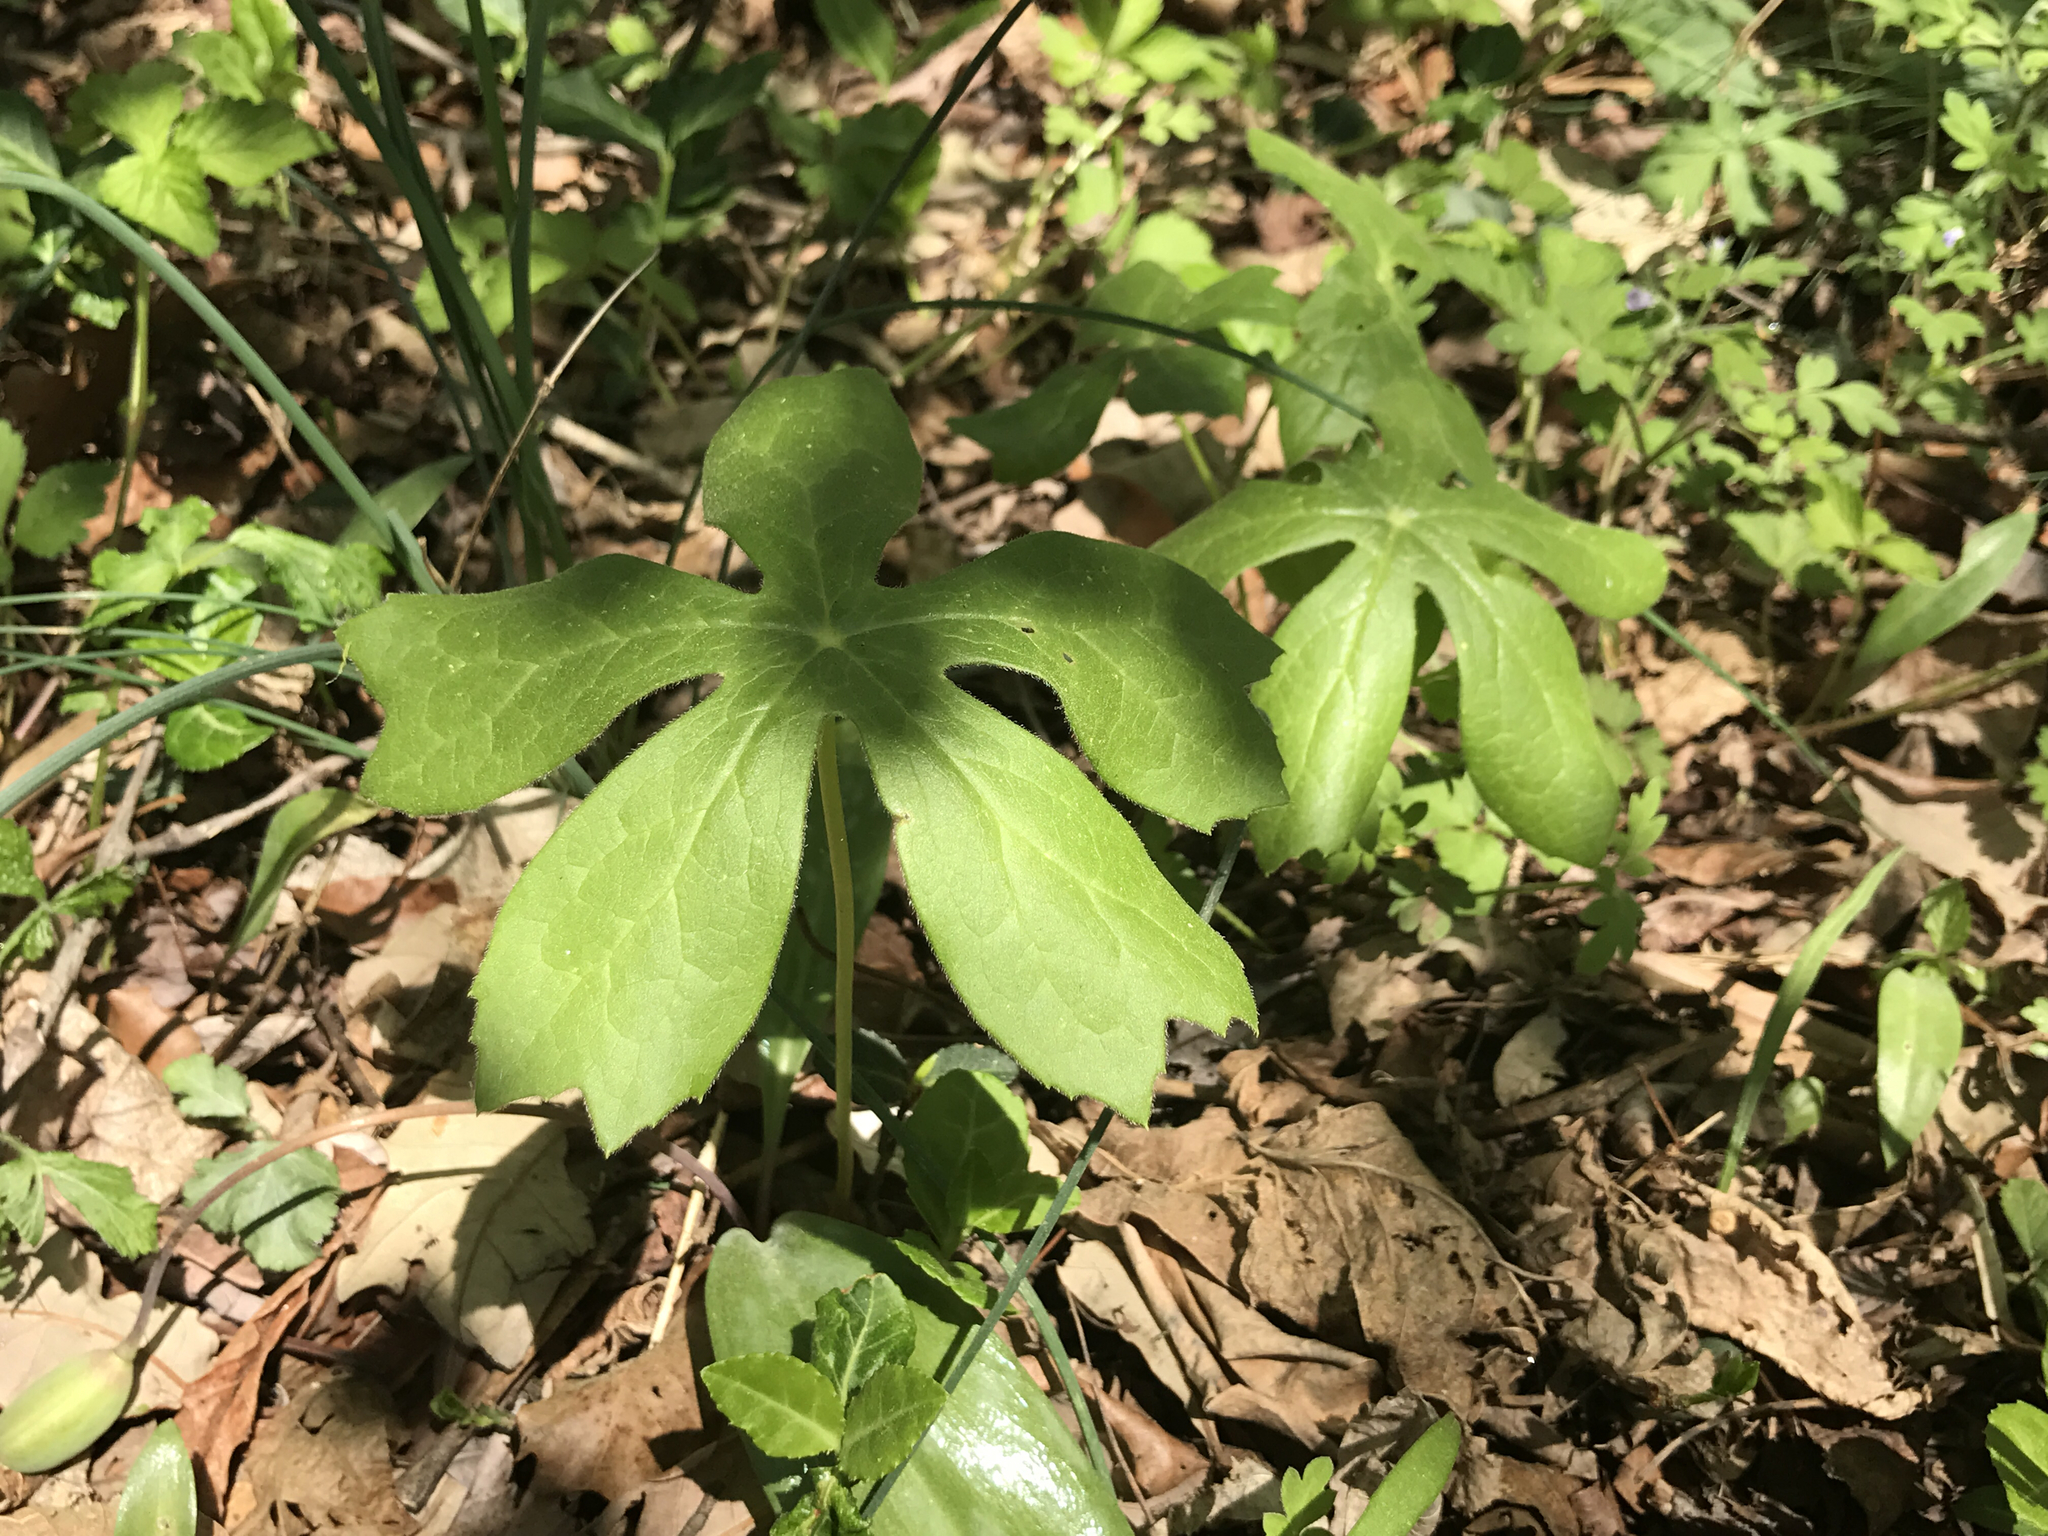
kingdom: Plantae
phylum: Tracheophyta
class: Magnoliopsida
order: Ranunculales
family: Berberidaceae
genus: Podophyllum
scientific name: Podophyllum peltatum
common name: Wild mandrake
